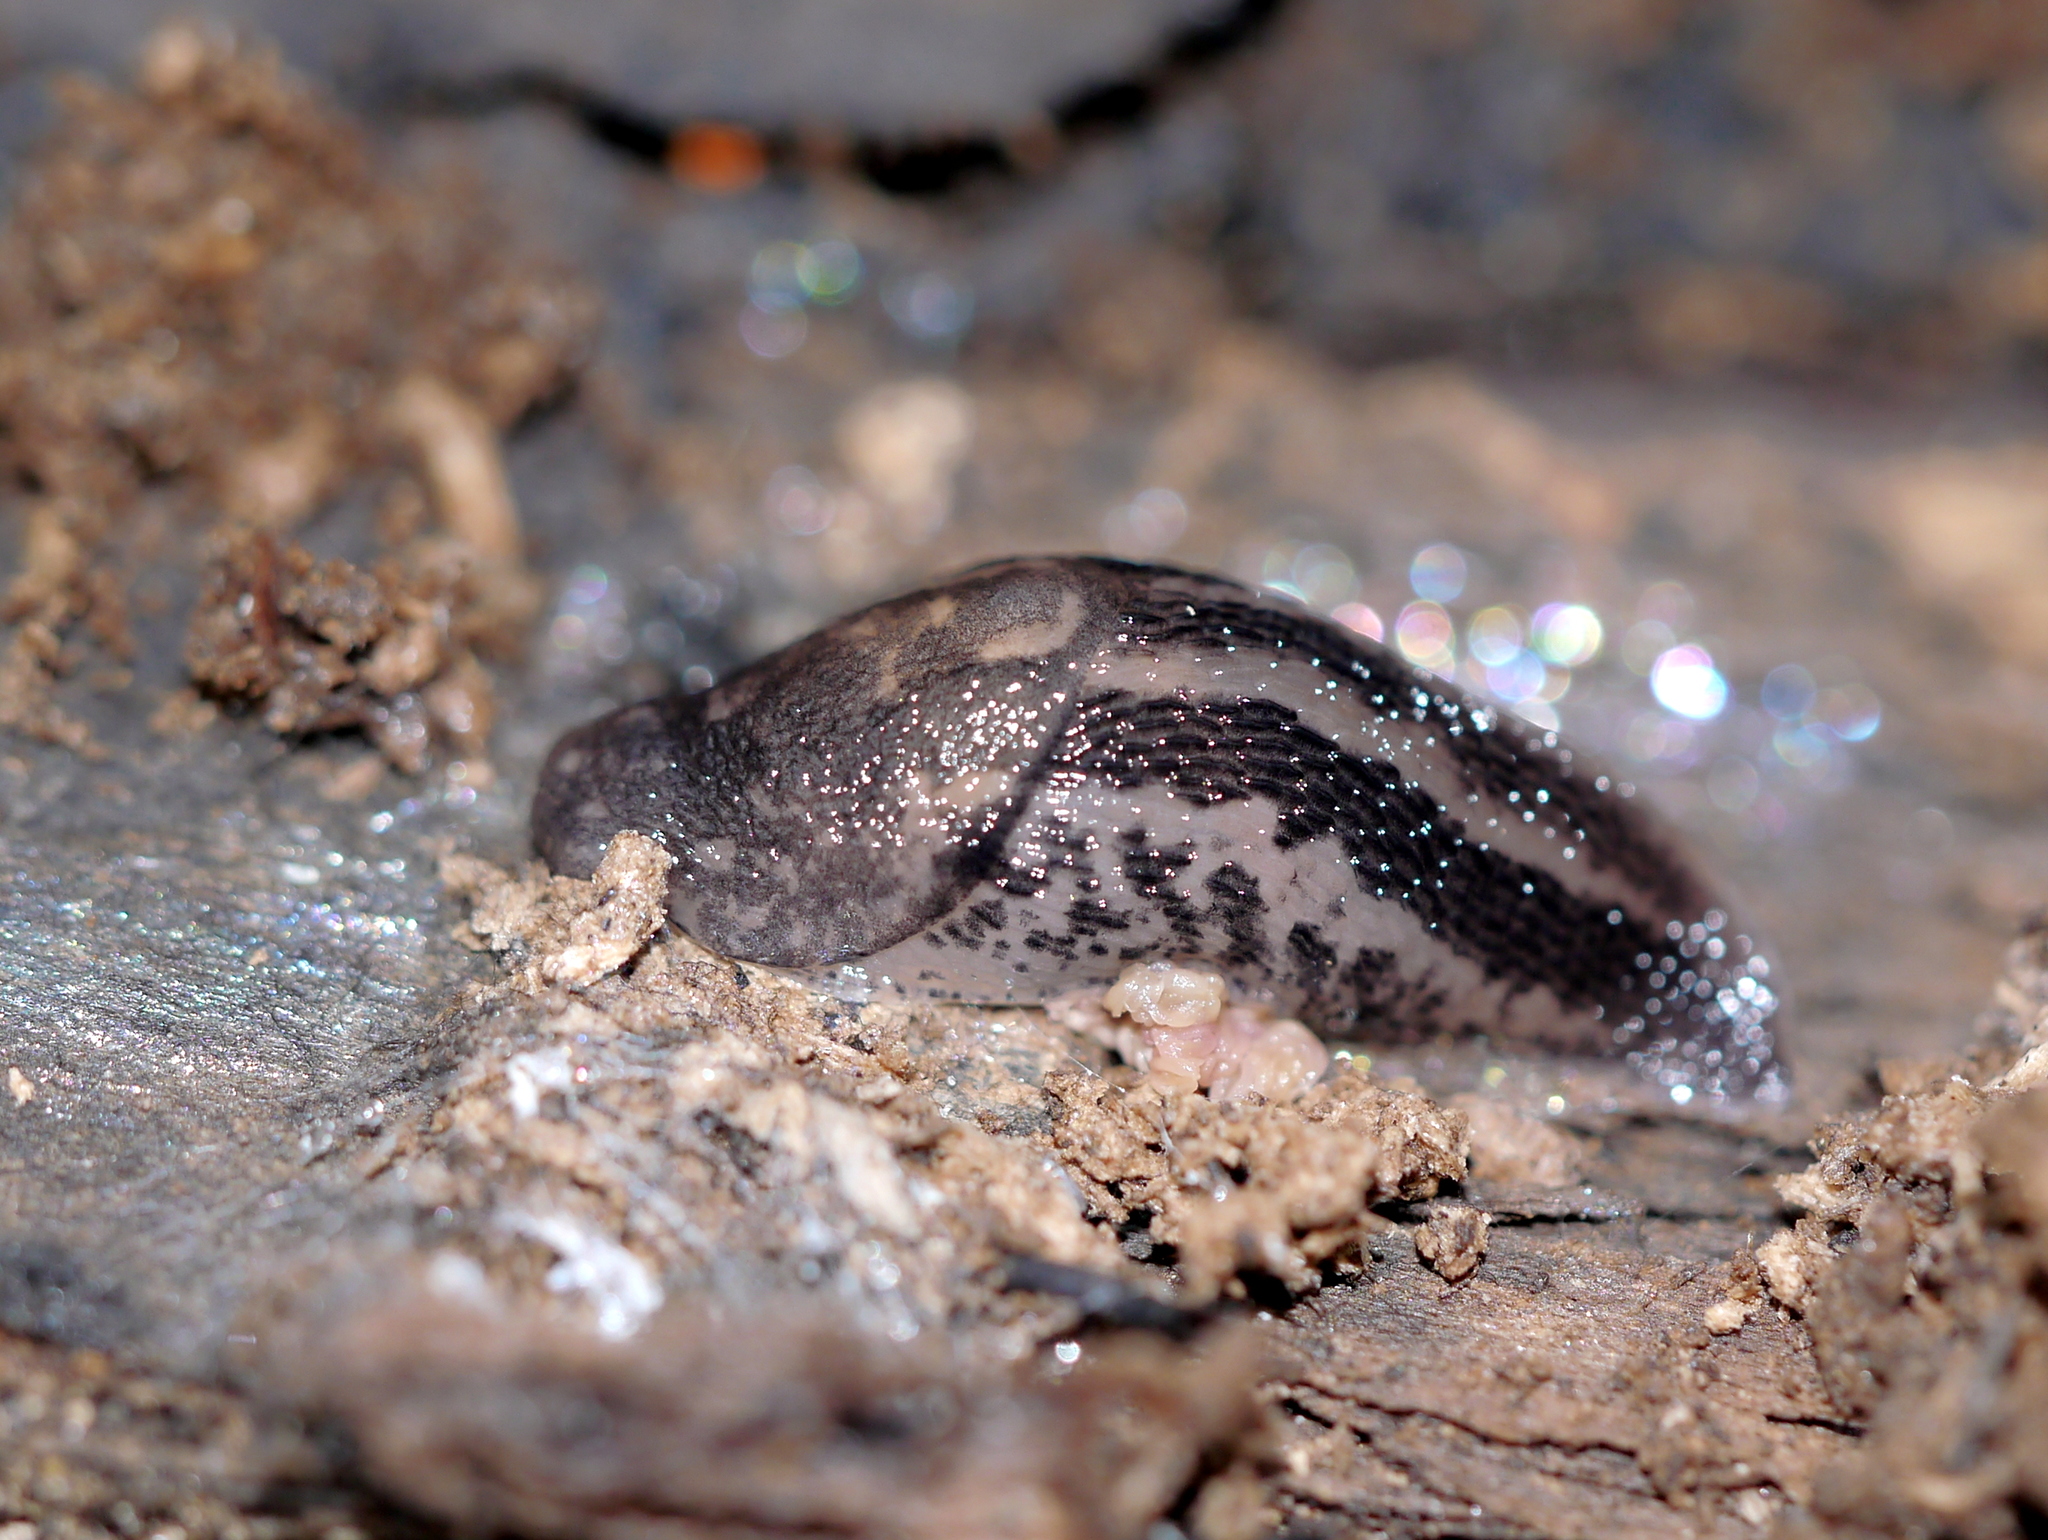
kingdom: Animalia
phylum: Mollusca
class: Gastropoda
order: Stylommatophora
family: Limacidae
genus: Limax
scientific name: Limax maximus
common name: Great grey slug
